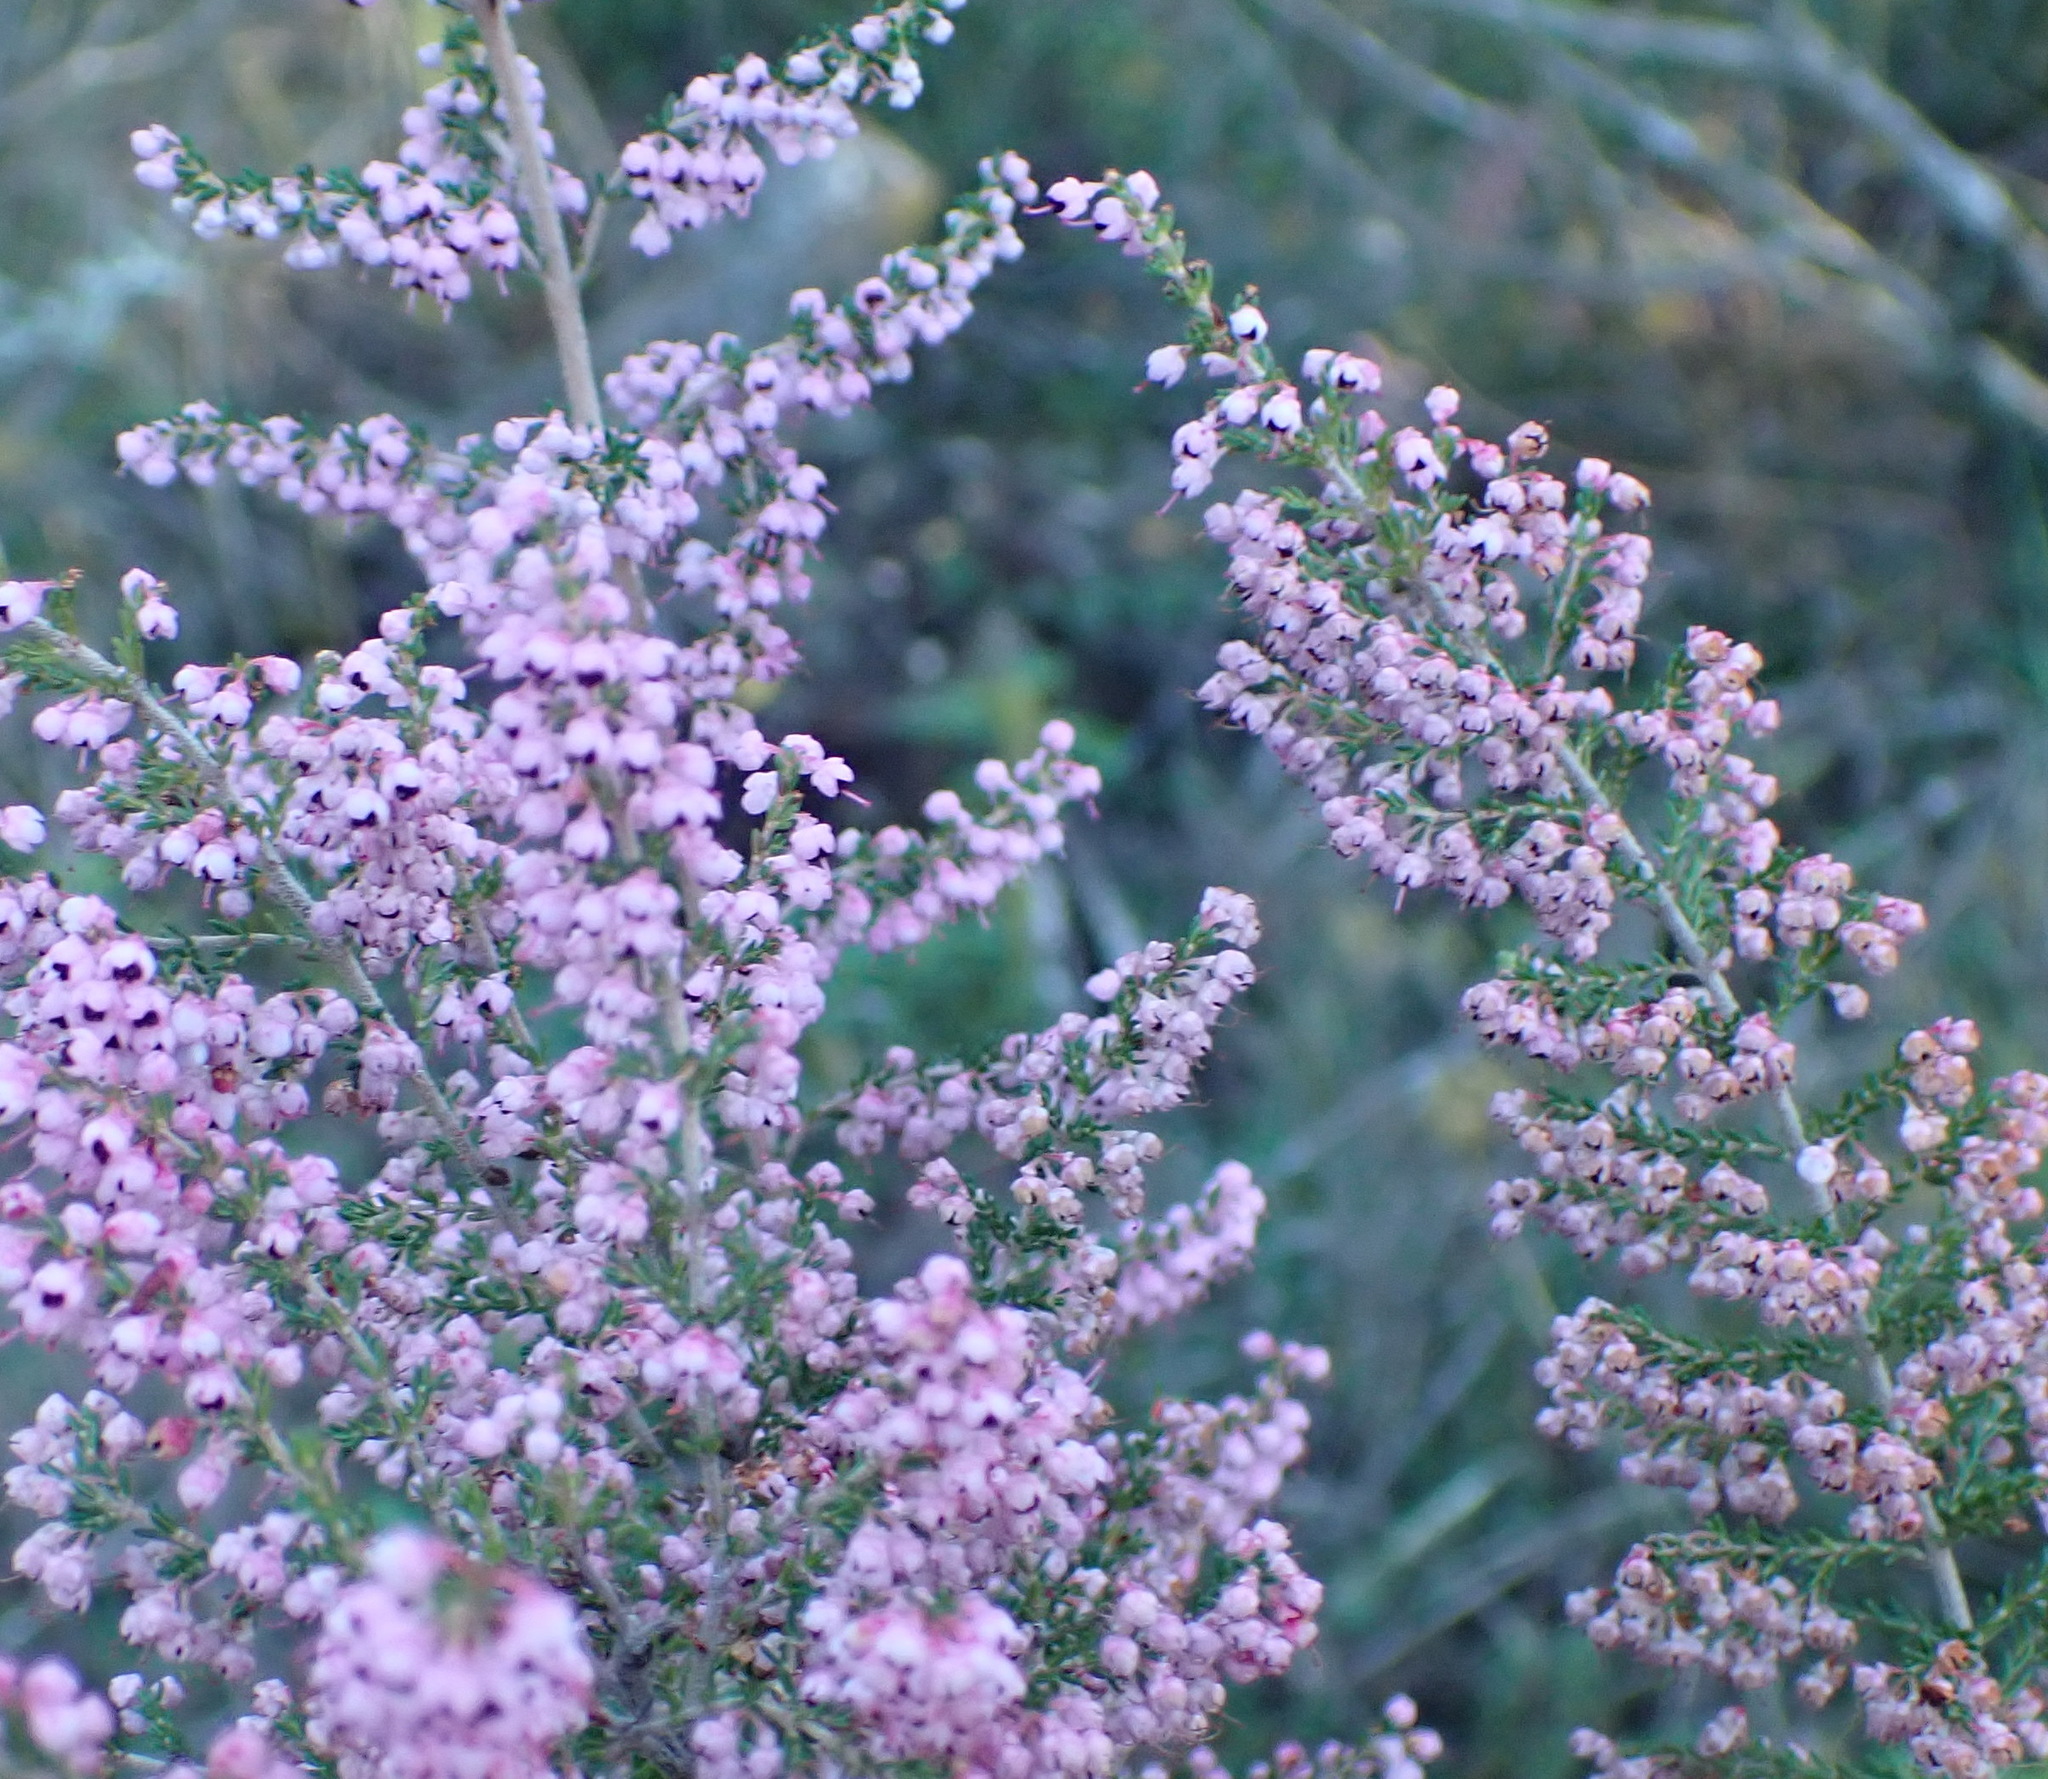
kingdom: Plantae
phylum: Tracheophyta
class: Magnoliopsida
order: Ericales
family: Ericaceae
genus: Erica
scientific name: Erica sparsa
